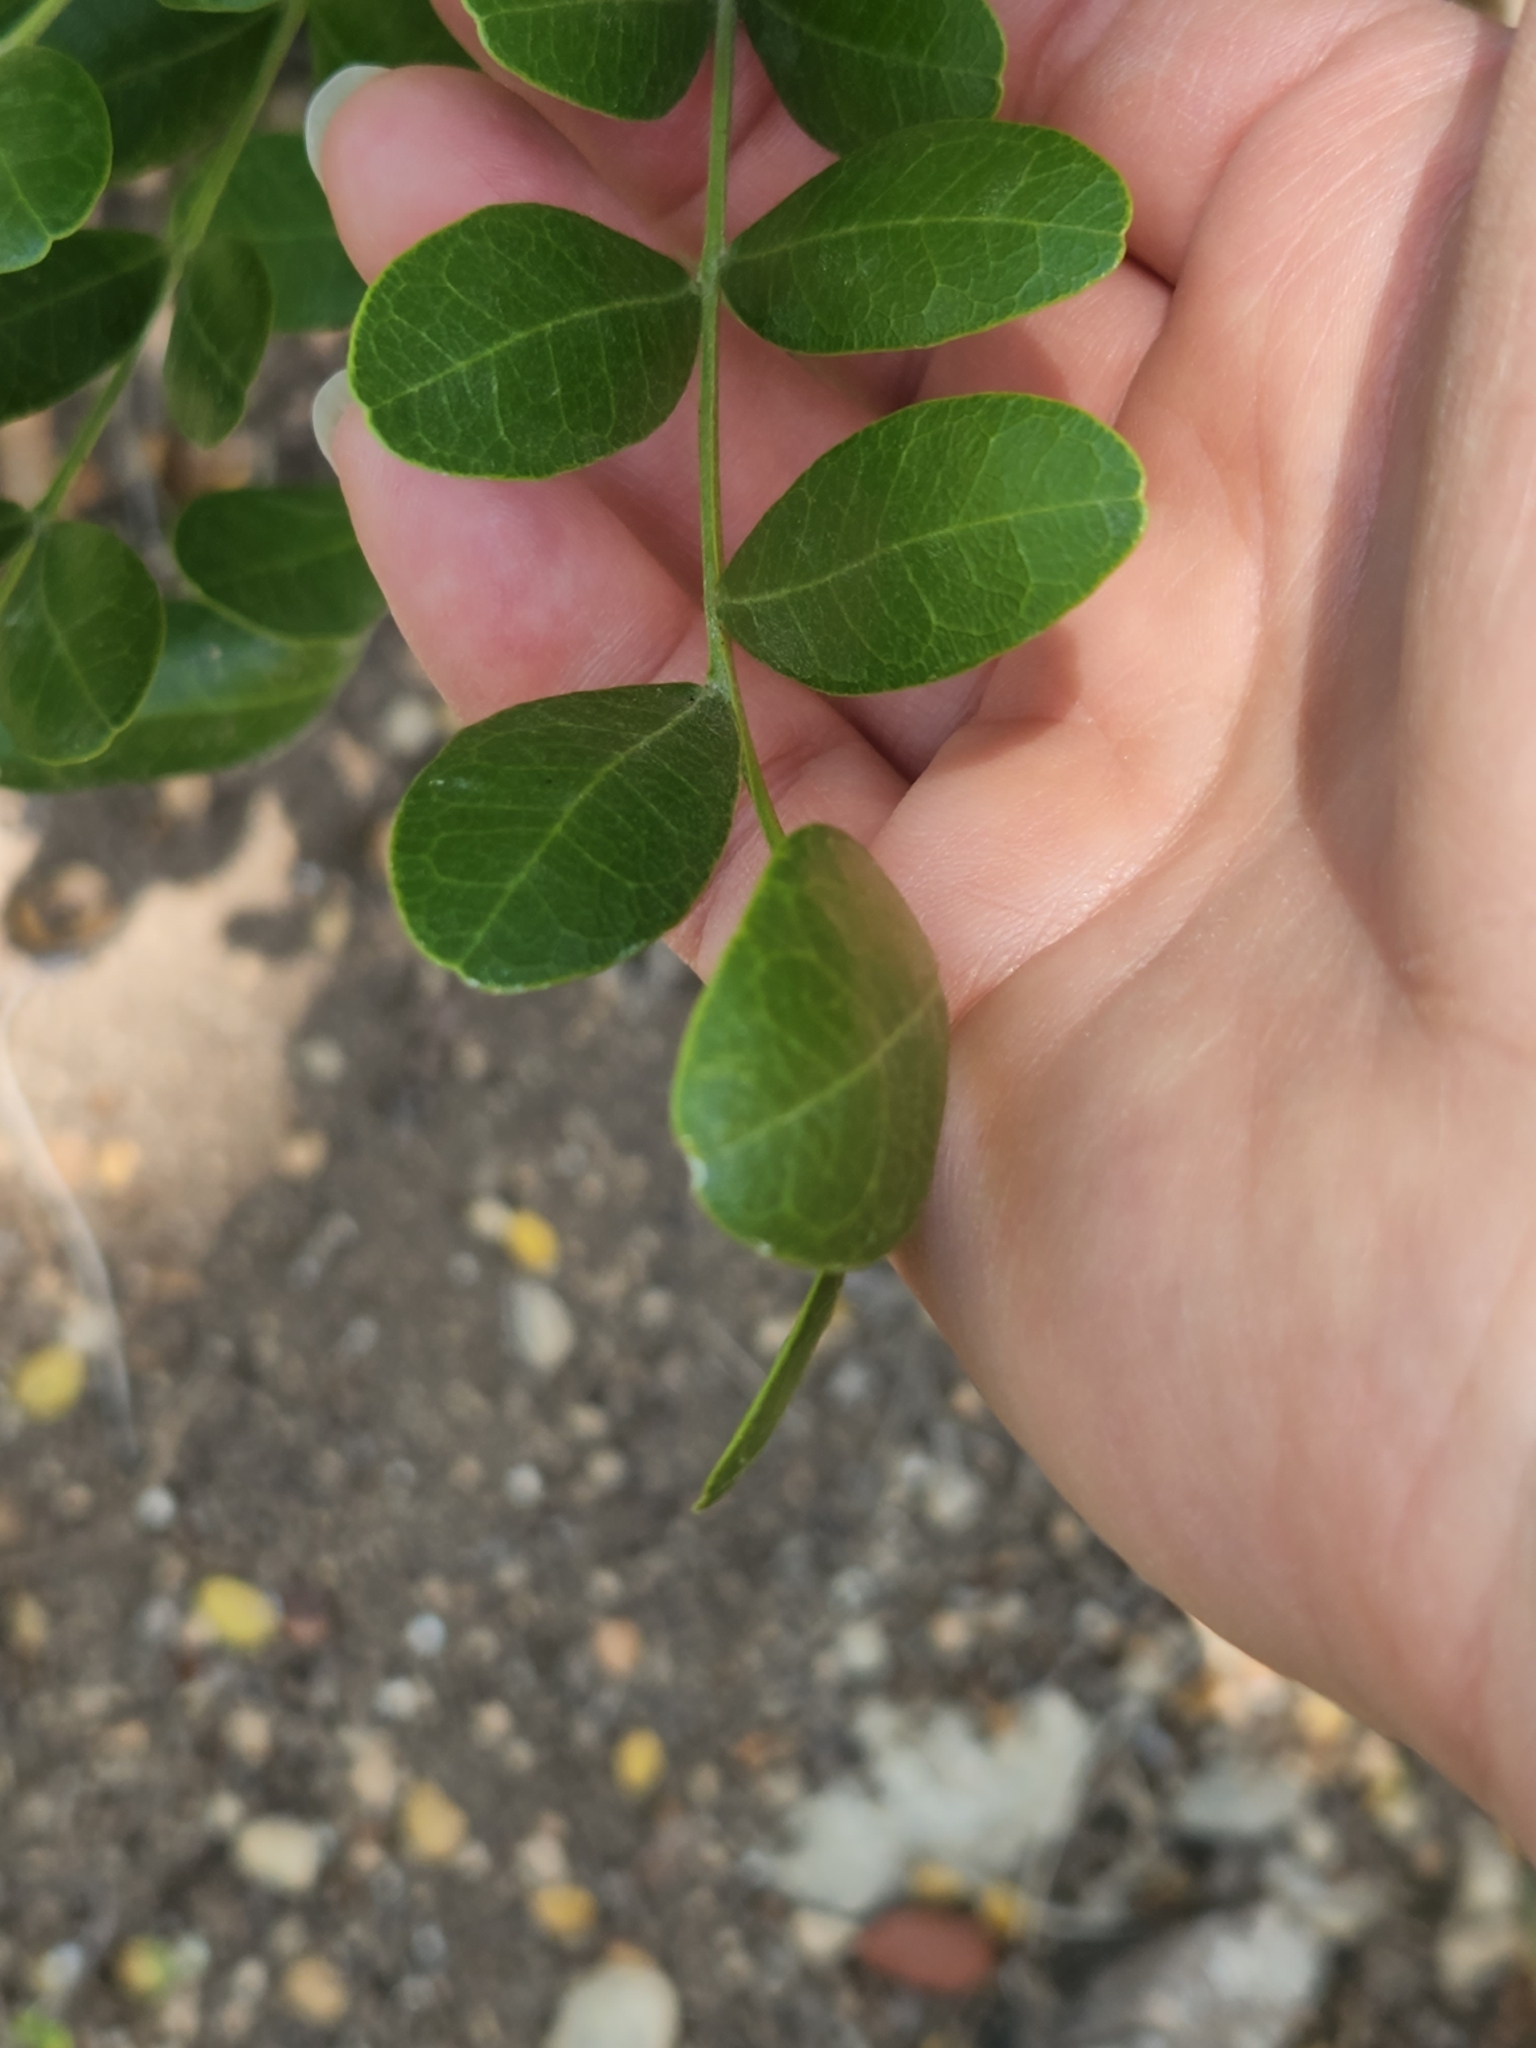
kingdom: Plantae
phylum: Tracheophyta
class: Magnoliopsida
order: Fabales
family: Fabaceae
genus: Dermatophyllum
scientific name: Dermatophyllum secundiflorum
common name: Texas-mountain-laurel
